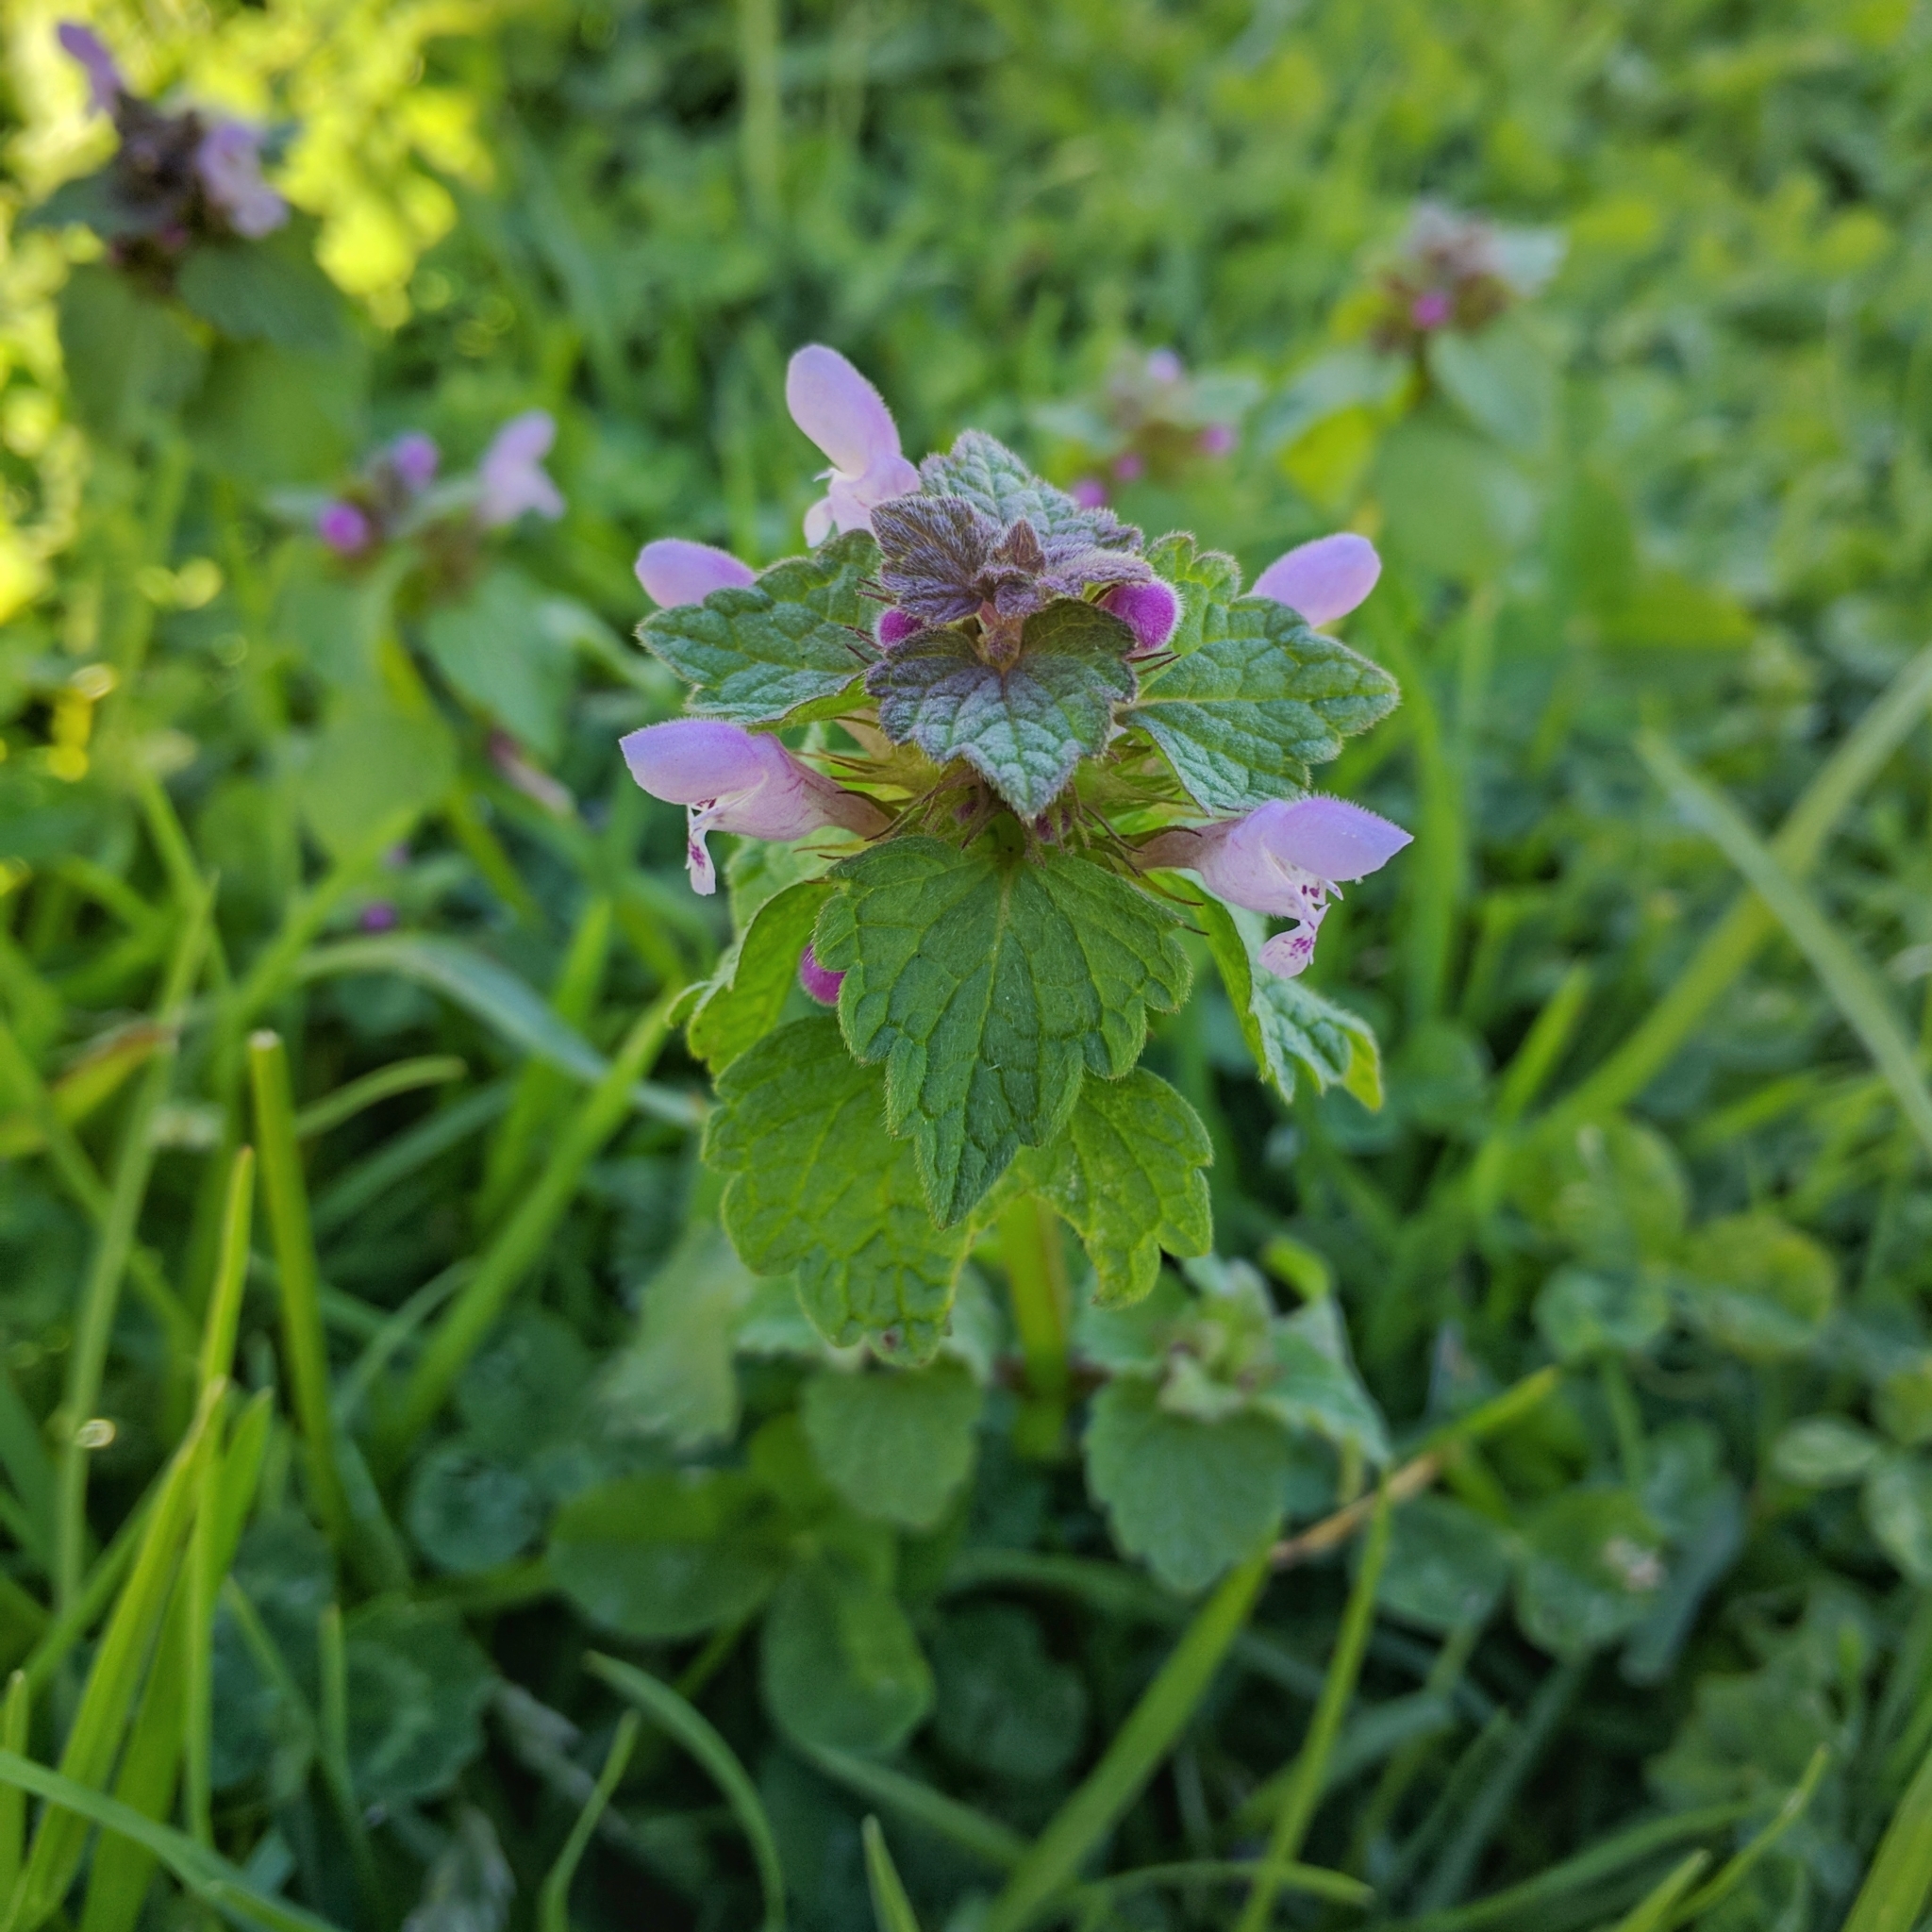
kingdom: Plantae
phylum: Tracheophyta
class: Magnoliopsida
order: Lamiales
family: Lamiaceae
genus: Lamium
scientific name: Lamium purpureum
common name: Red dead-nettle
